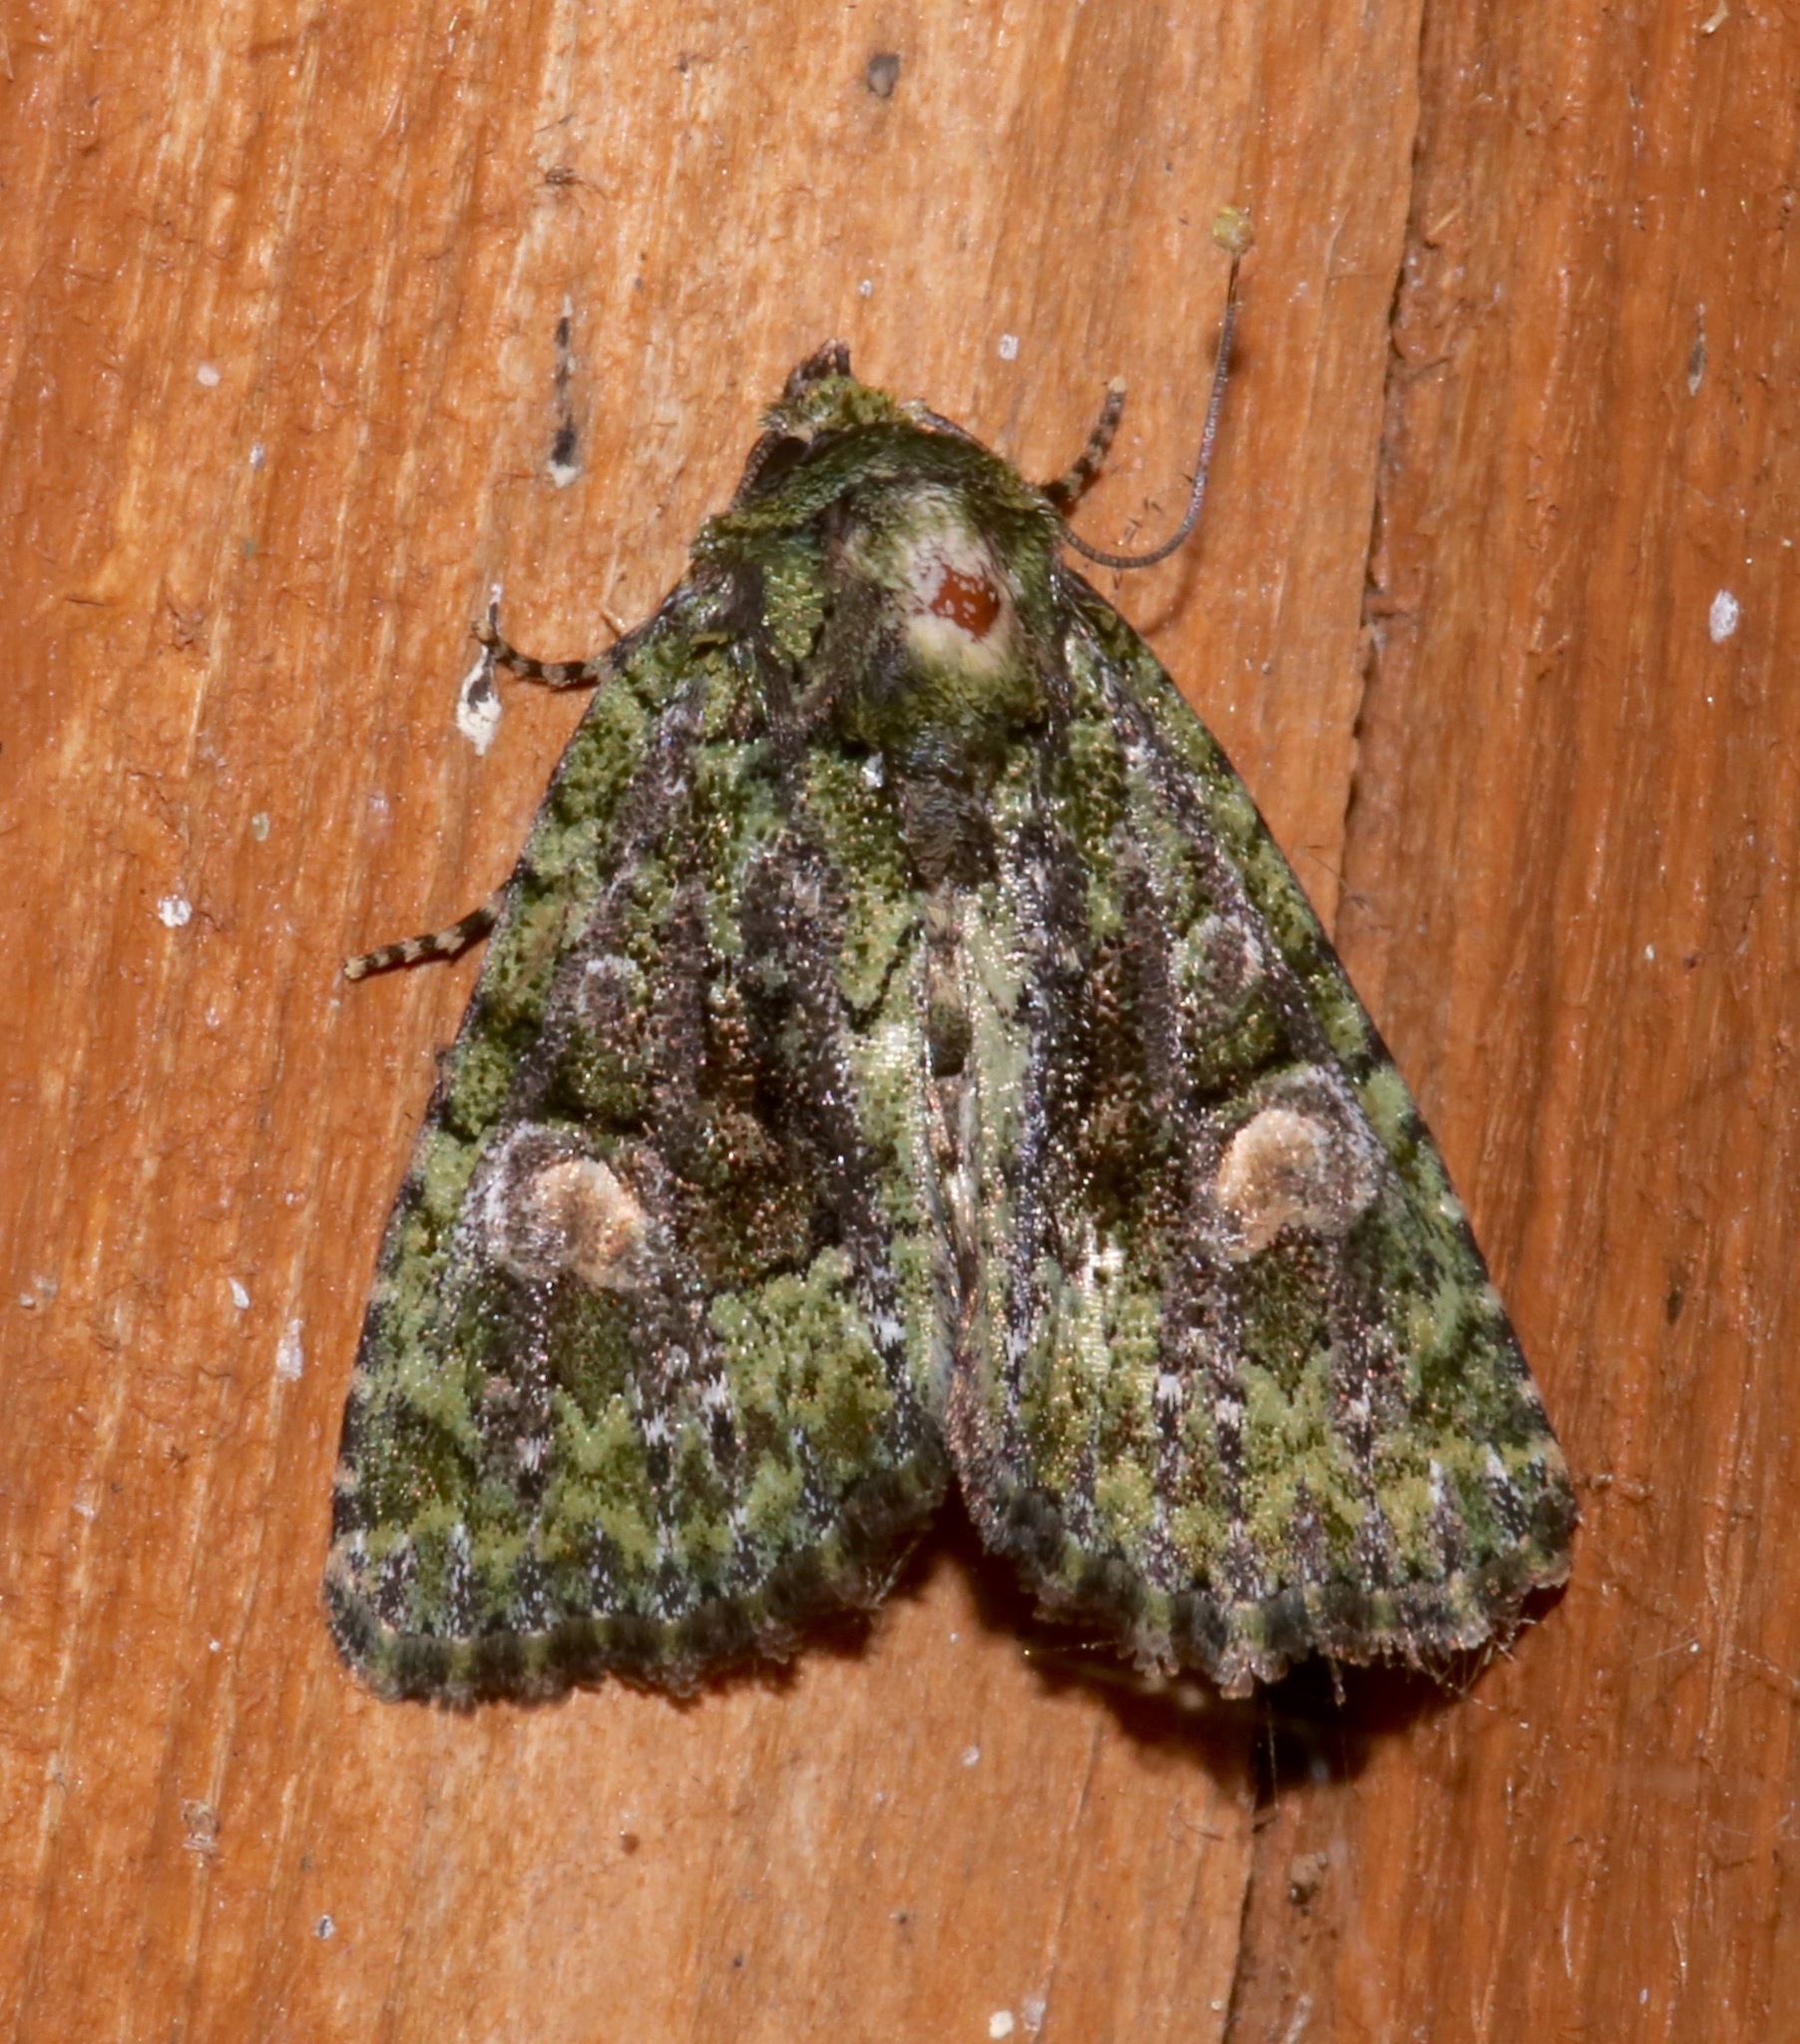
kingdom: Animalia
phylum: Arthropoda
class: Insecta
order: Lepidoptera
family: Noctuidae
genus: Phosphila
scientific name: Phosphila miselioides
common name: Spotted phosphila moth
